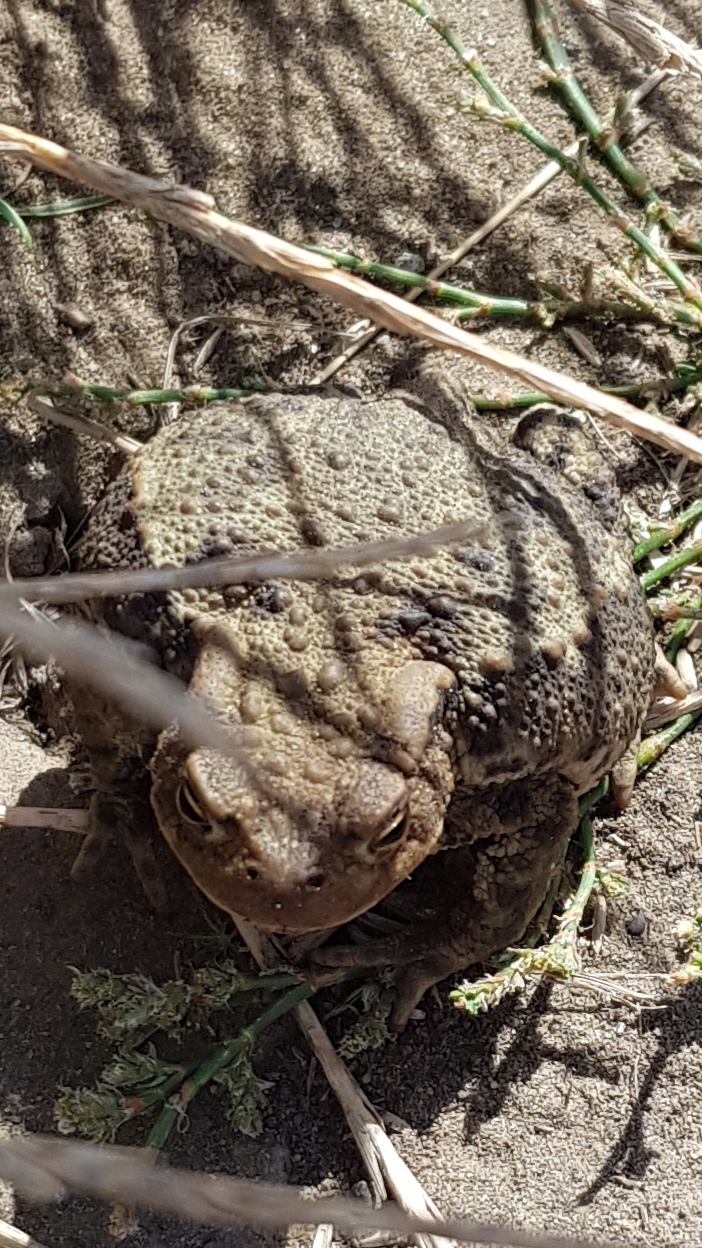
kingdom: Animalia
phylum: Chordata
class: Amphibia
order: Anura
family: Bufonidae
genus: Bufo
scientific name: Bufo bufo
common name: Common toad
